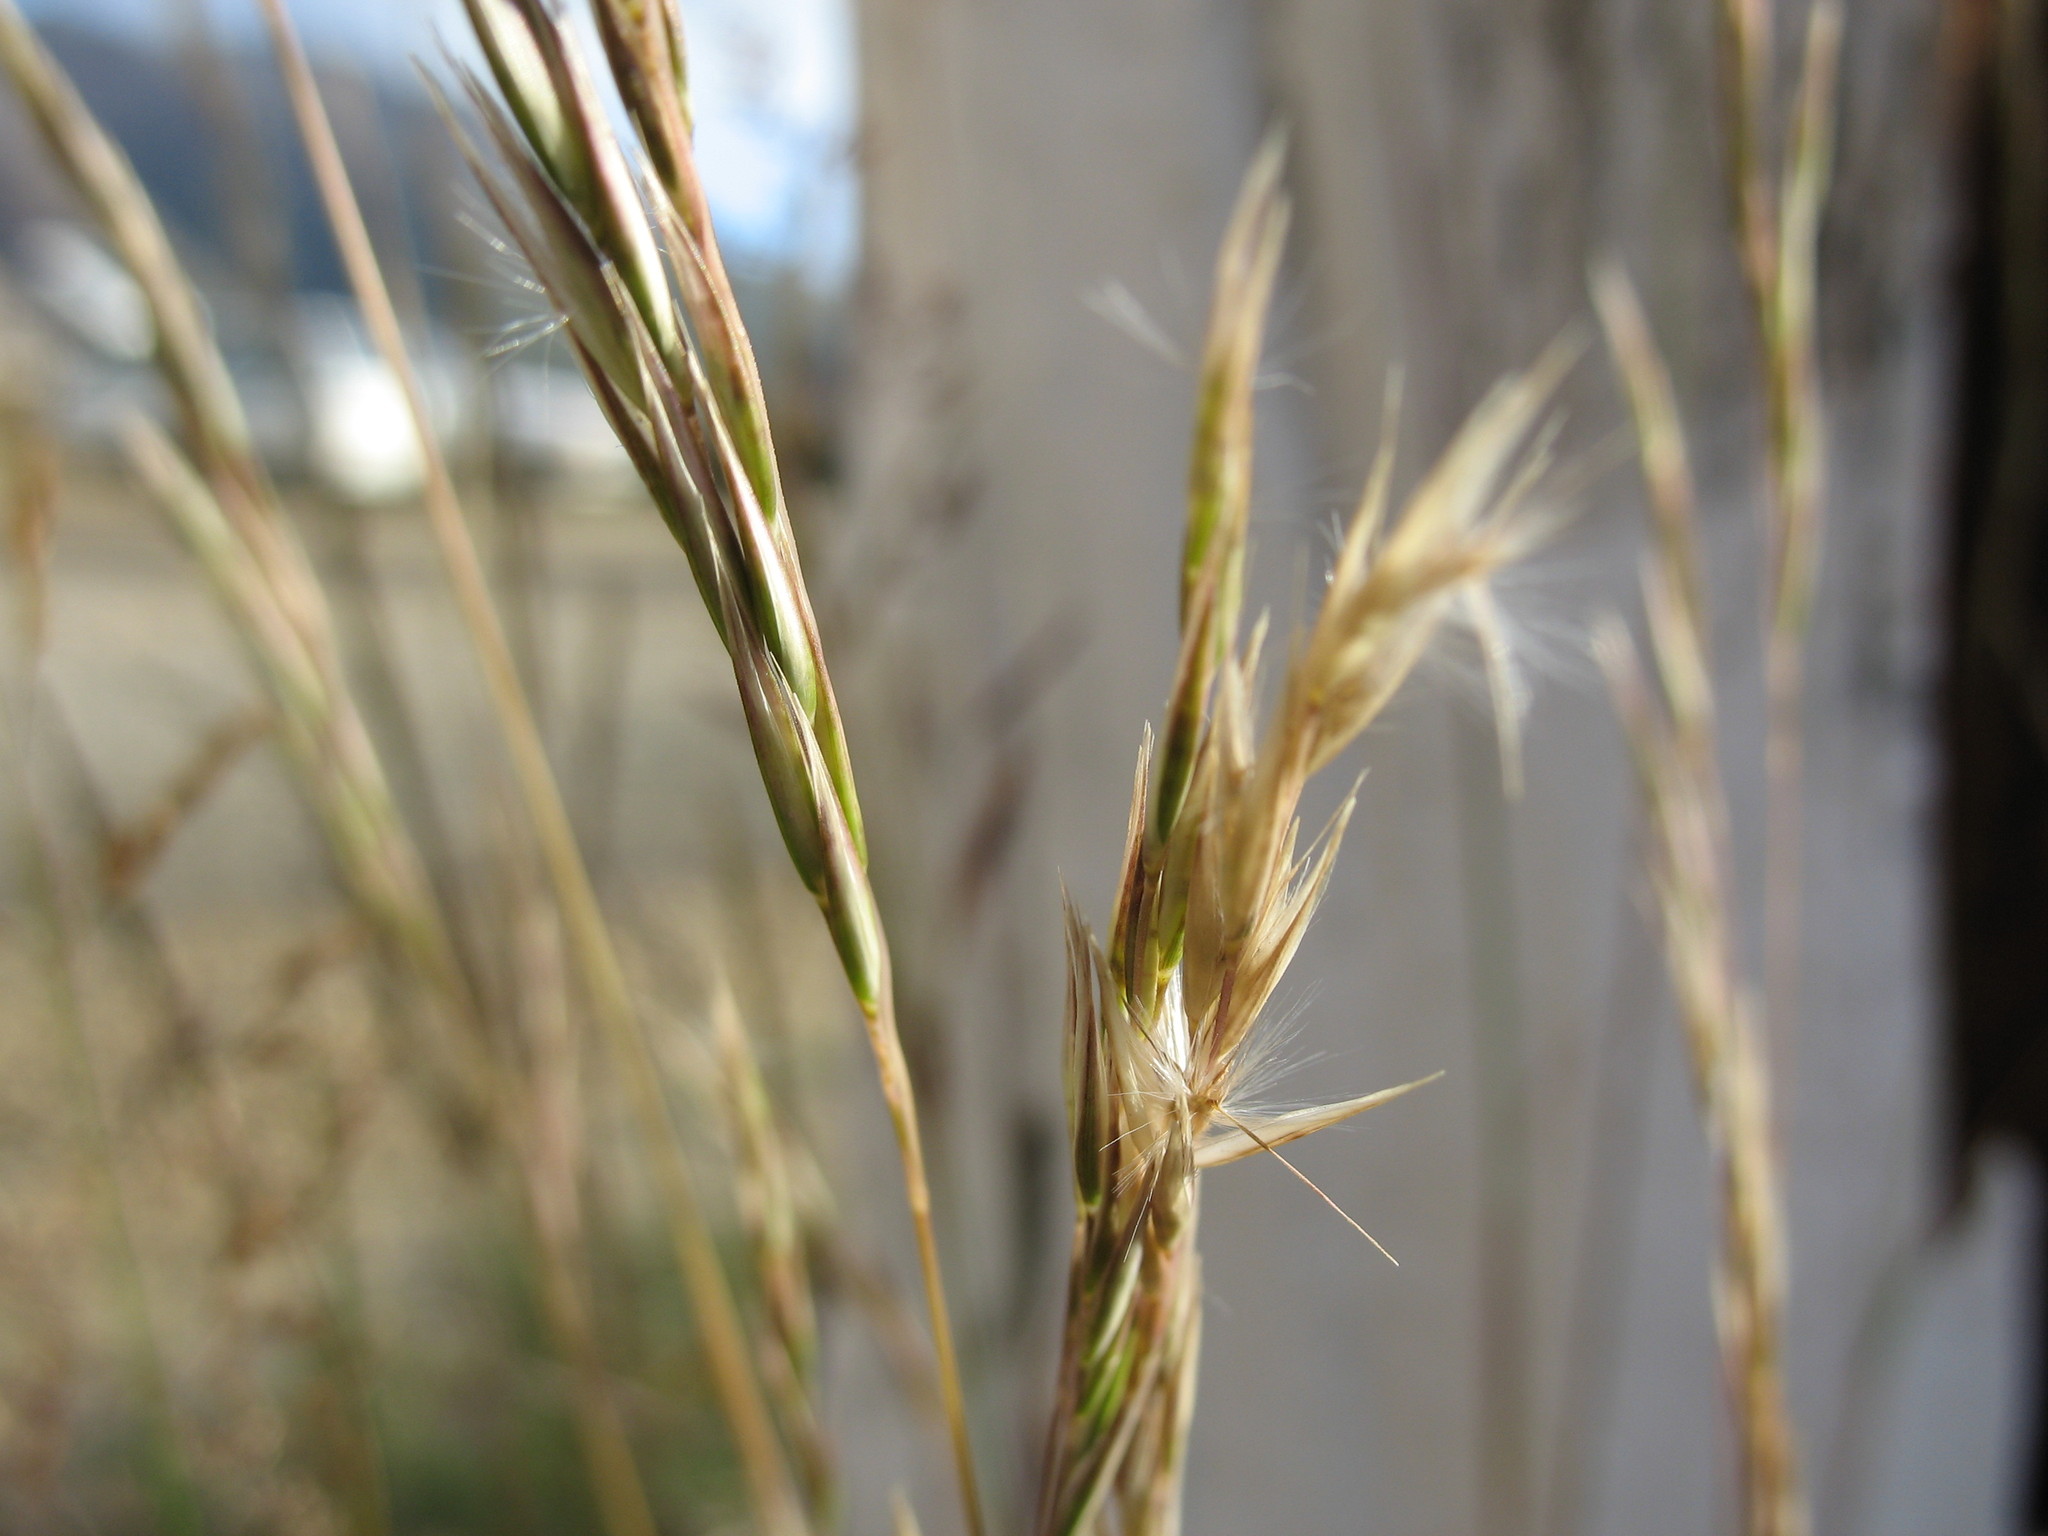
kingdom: Plantae
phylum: Tracheophyta
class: Liliopsida
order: Poales
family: Poaceae
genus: Rytidosperma
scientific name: Rytidosperma gracile
